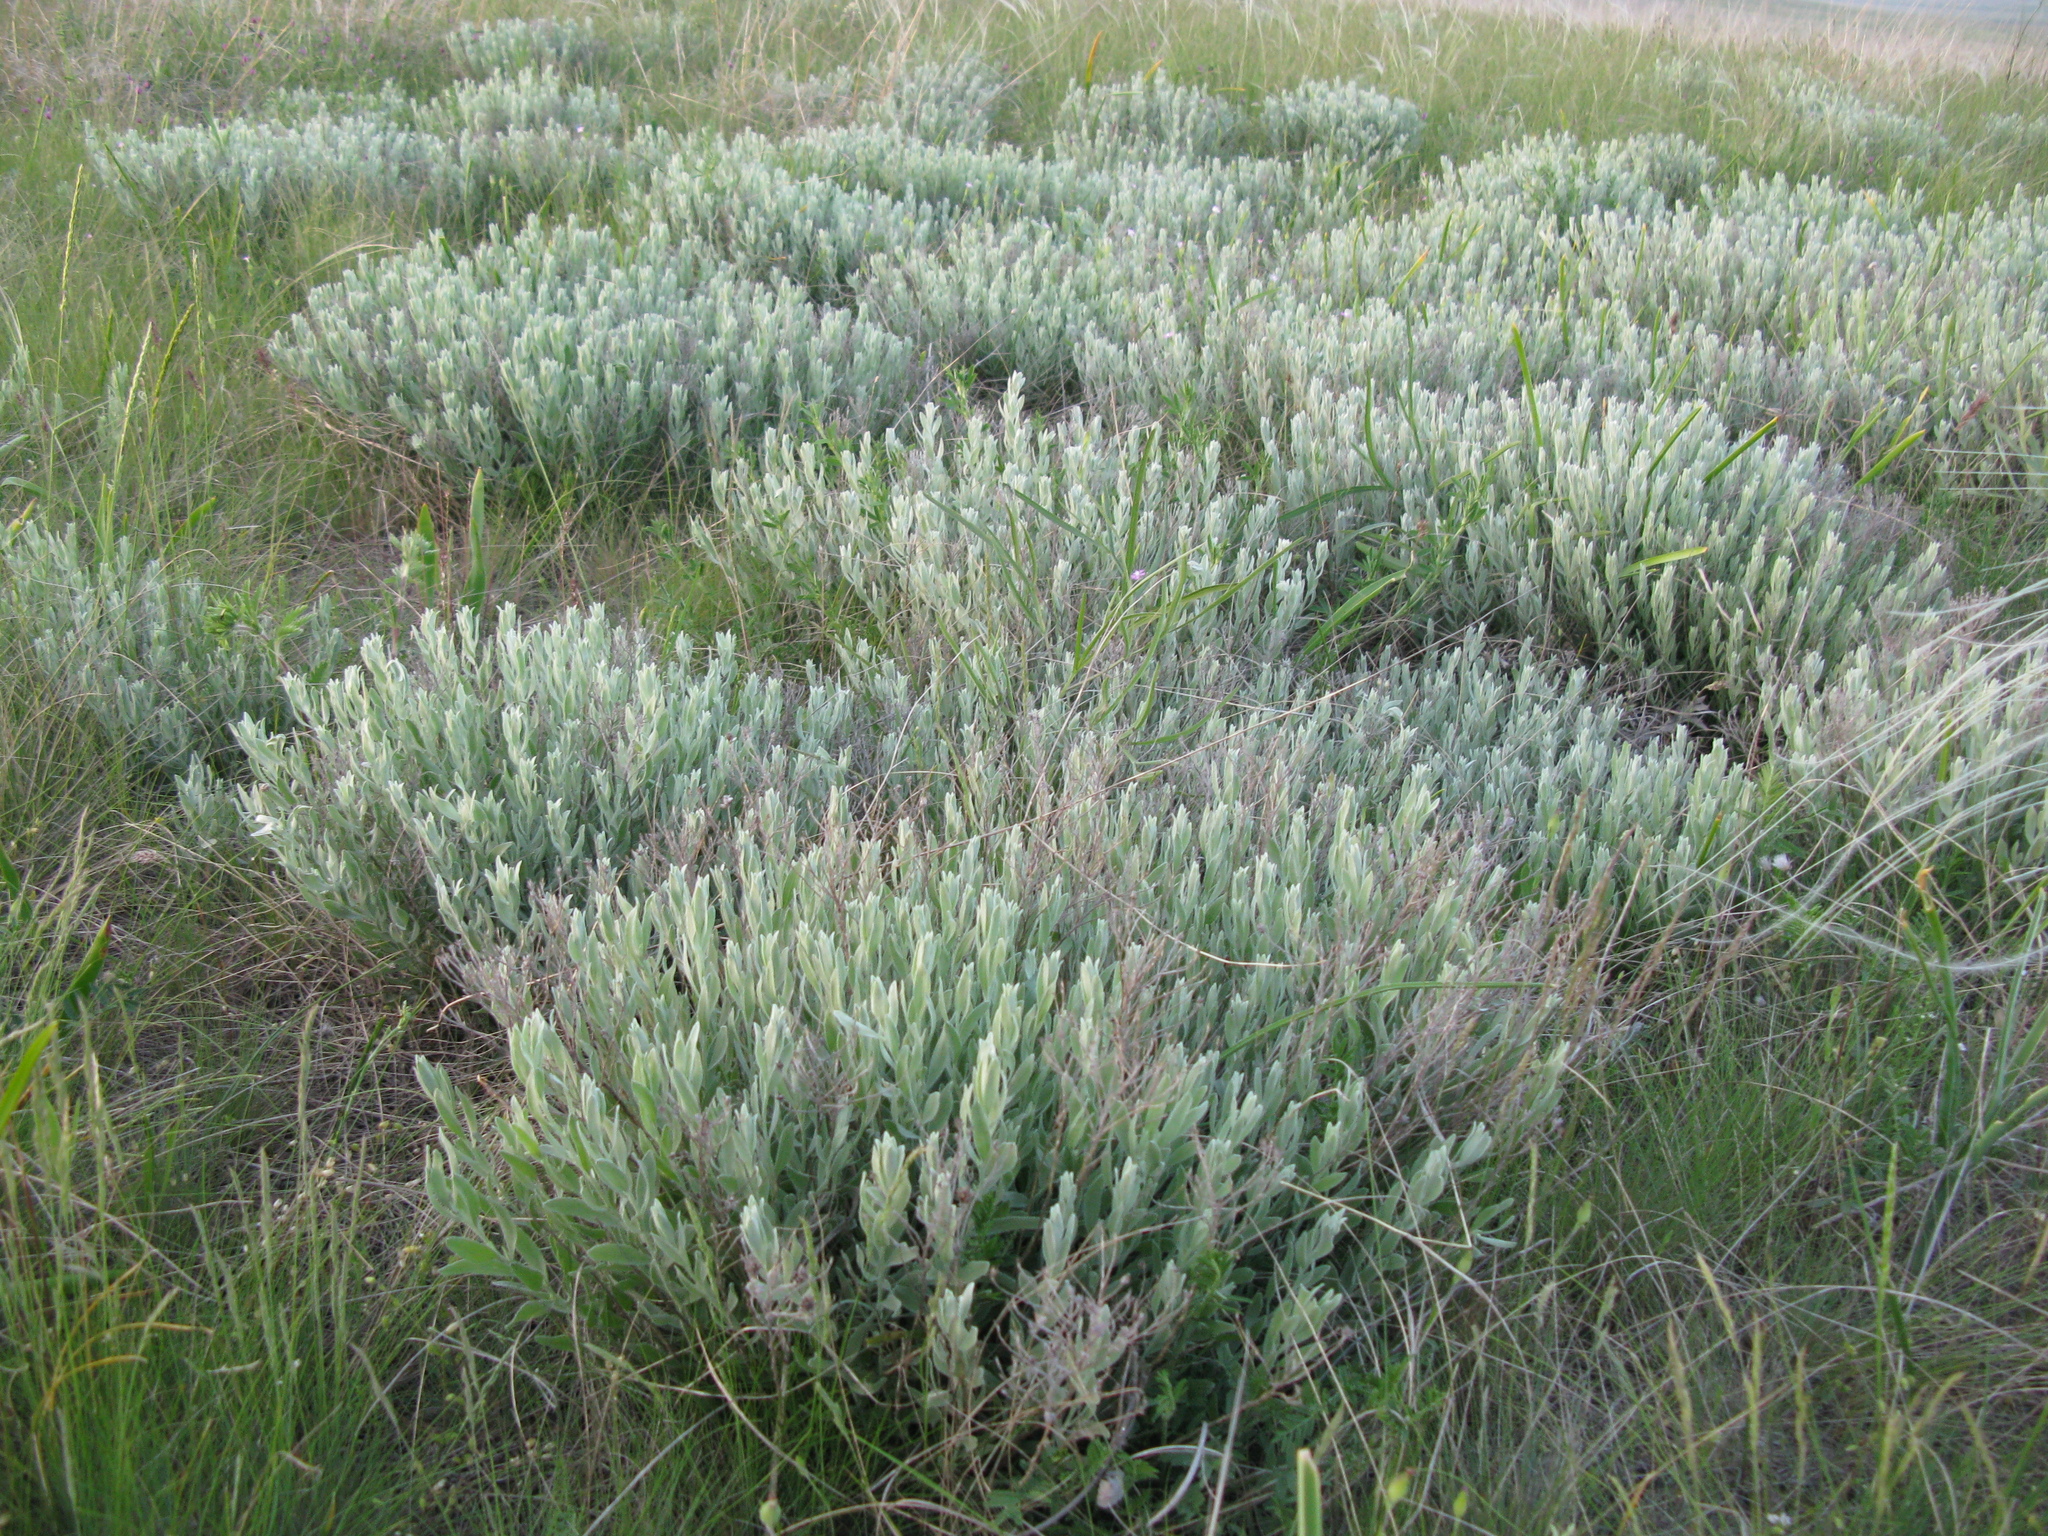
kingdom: Plantae
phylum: Tracheophyta
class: Magnoliopsida
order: Asterales
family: Asteraceae
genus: Galatella
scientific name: Galatella villosa
